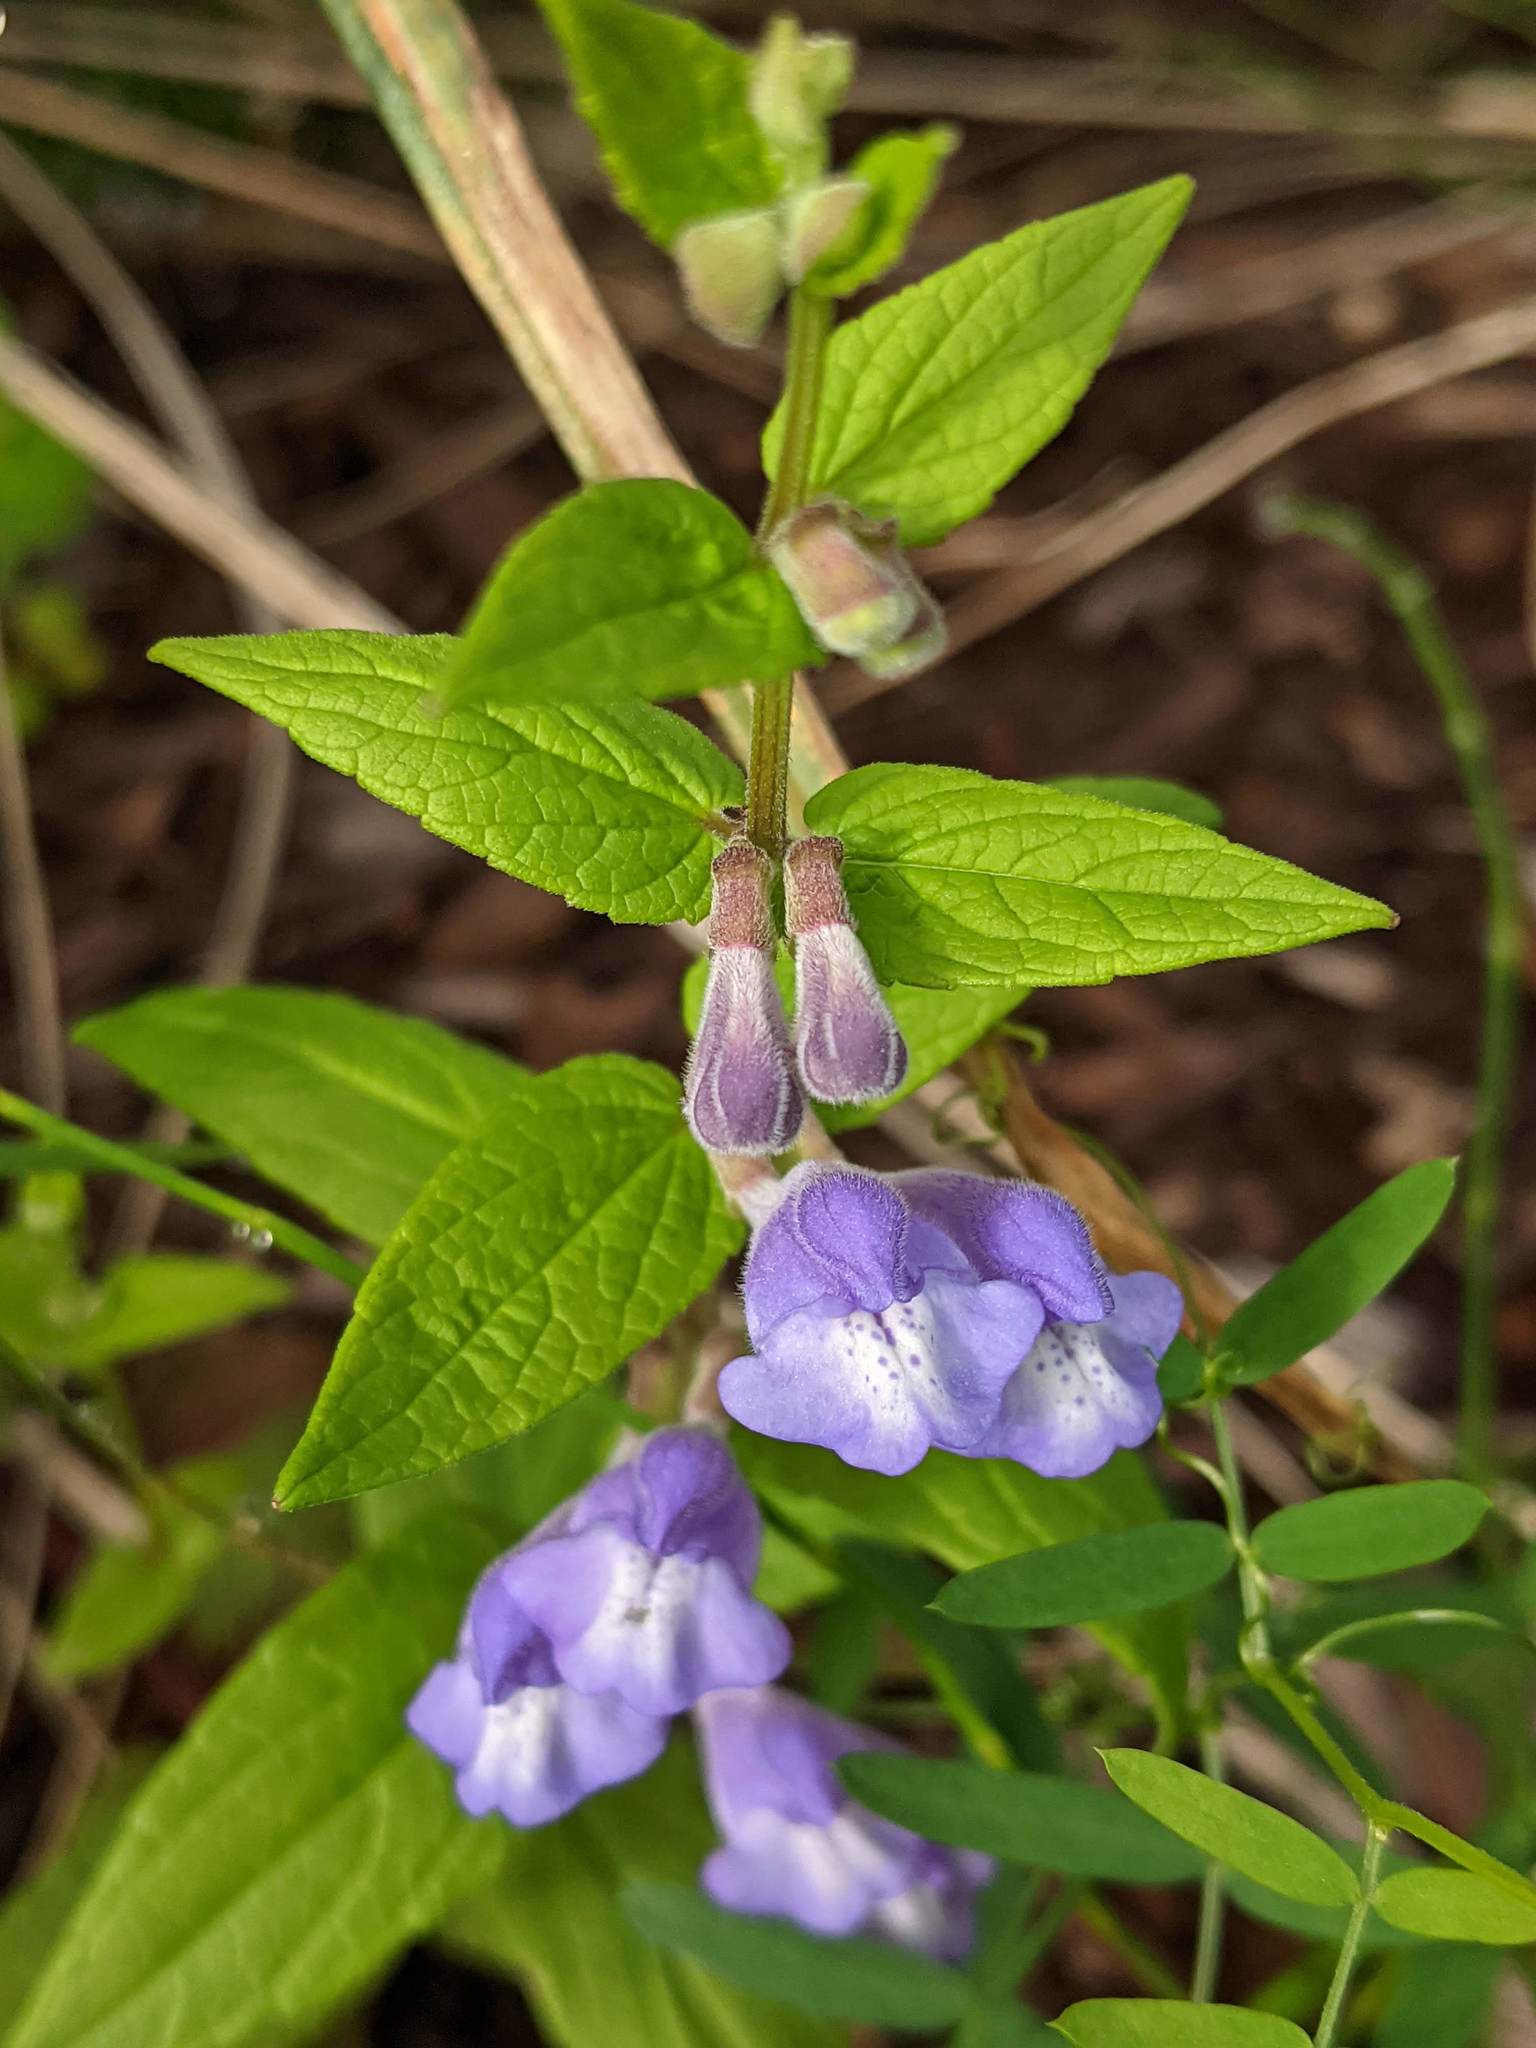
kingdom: Plantae
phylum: Tracheophyta
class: Magnoliopsida
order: Lamiales
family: Lamiaceae
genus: Scutellaria
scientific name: Scutellaria galericulata
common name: Skullcap
